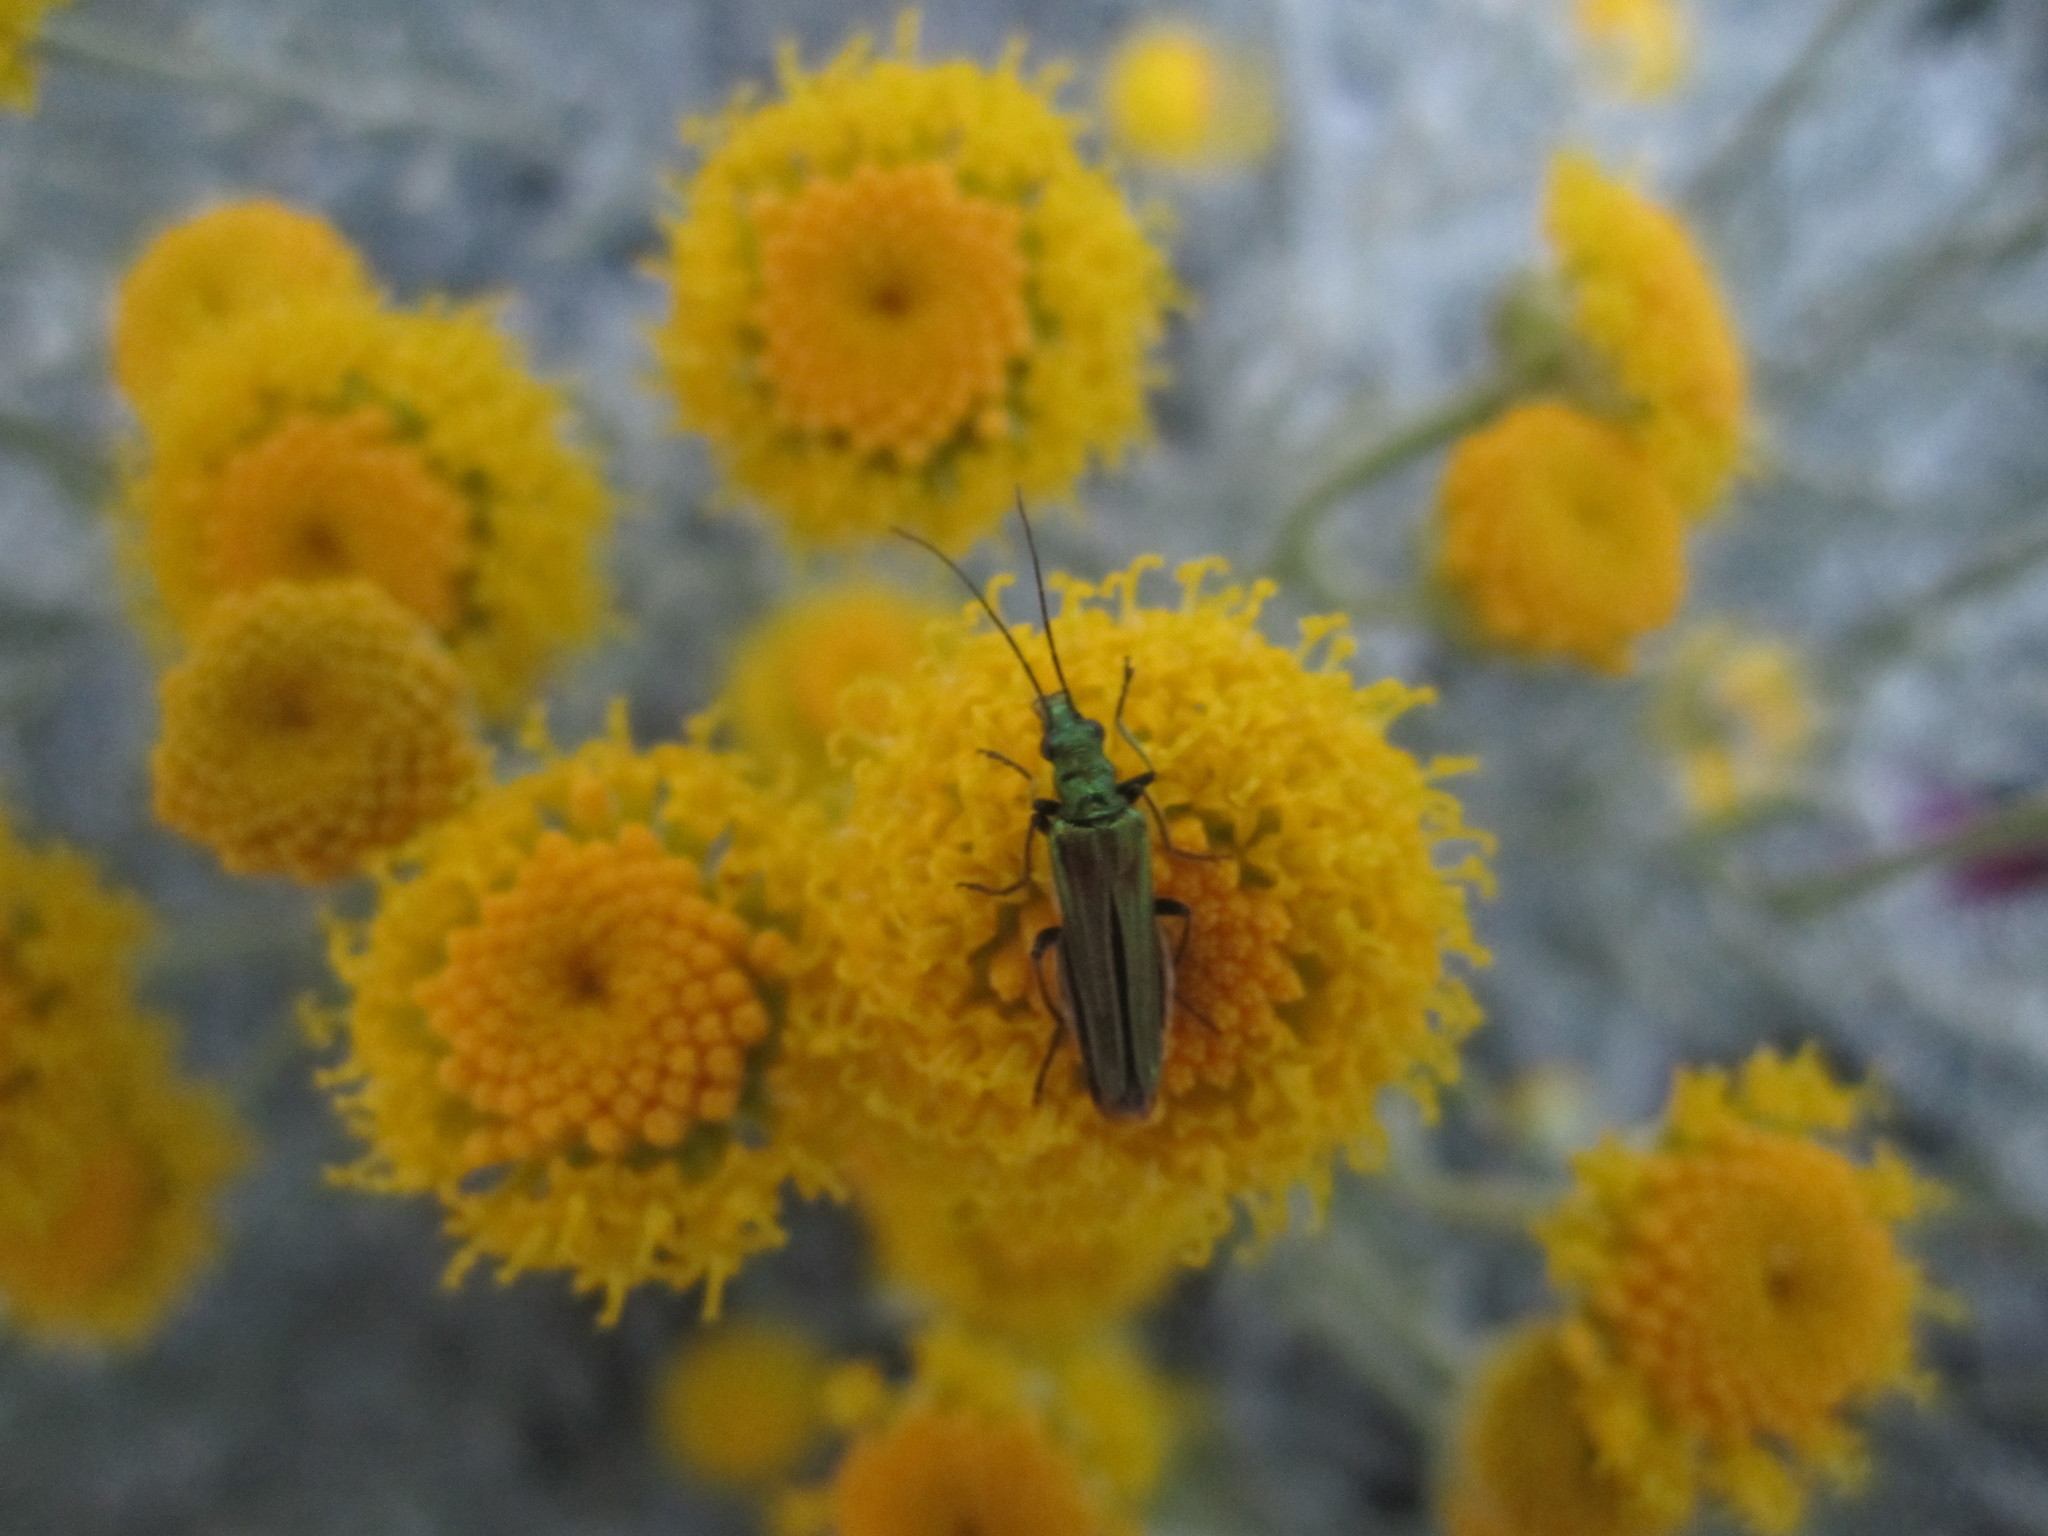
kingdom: Animalia
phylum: Arthropoda
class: Insecta
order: Coleoptera
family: Oedemeridae
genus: Oedemera
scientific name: Oedemera nobilis
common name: Swollen-thighed beetle
